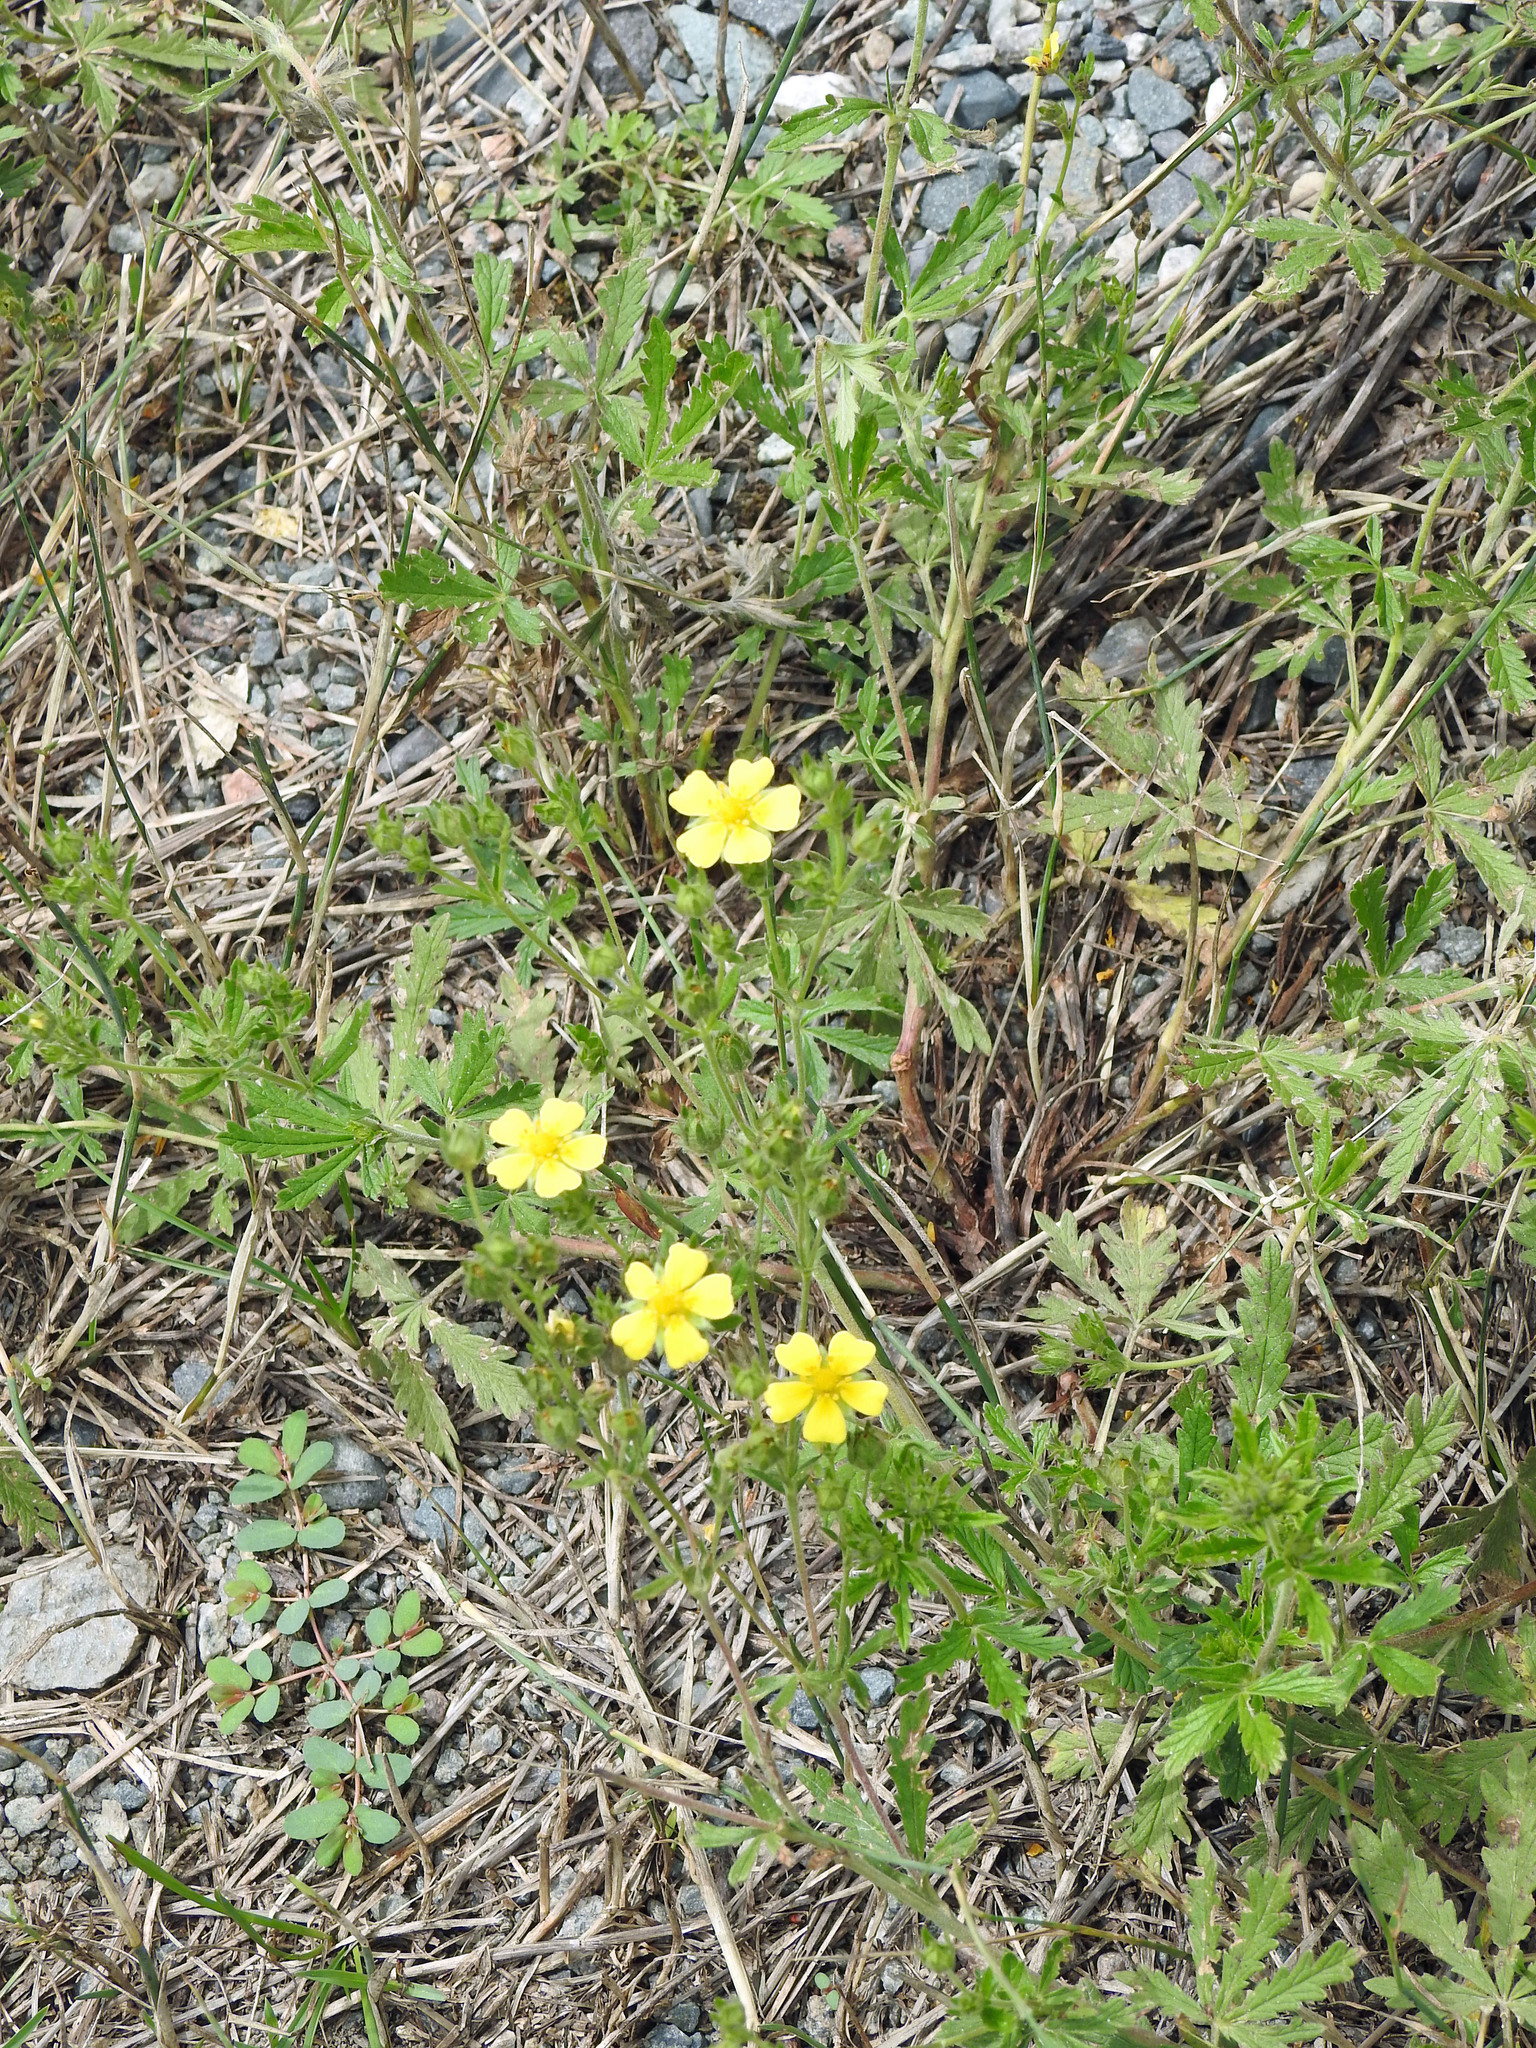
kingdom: Plantae
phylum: Tracheophyta
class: Magnoliopsida
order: Rosales
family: Rosaceae
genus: Potentilla
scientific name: Potentilla recta
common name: Sulphur cinquefoil
